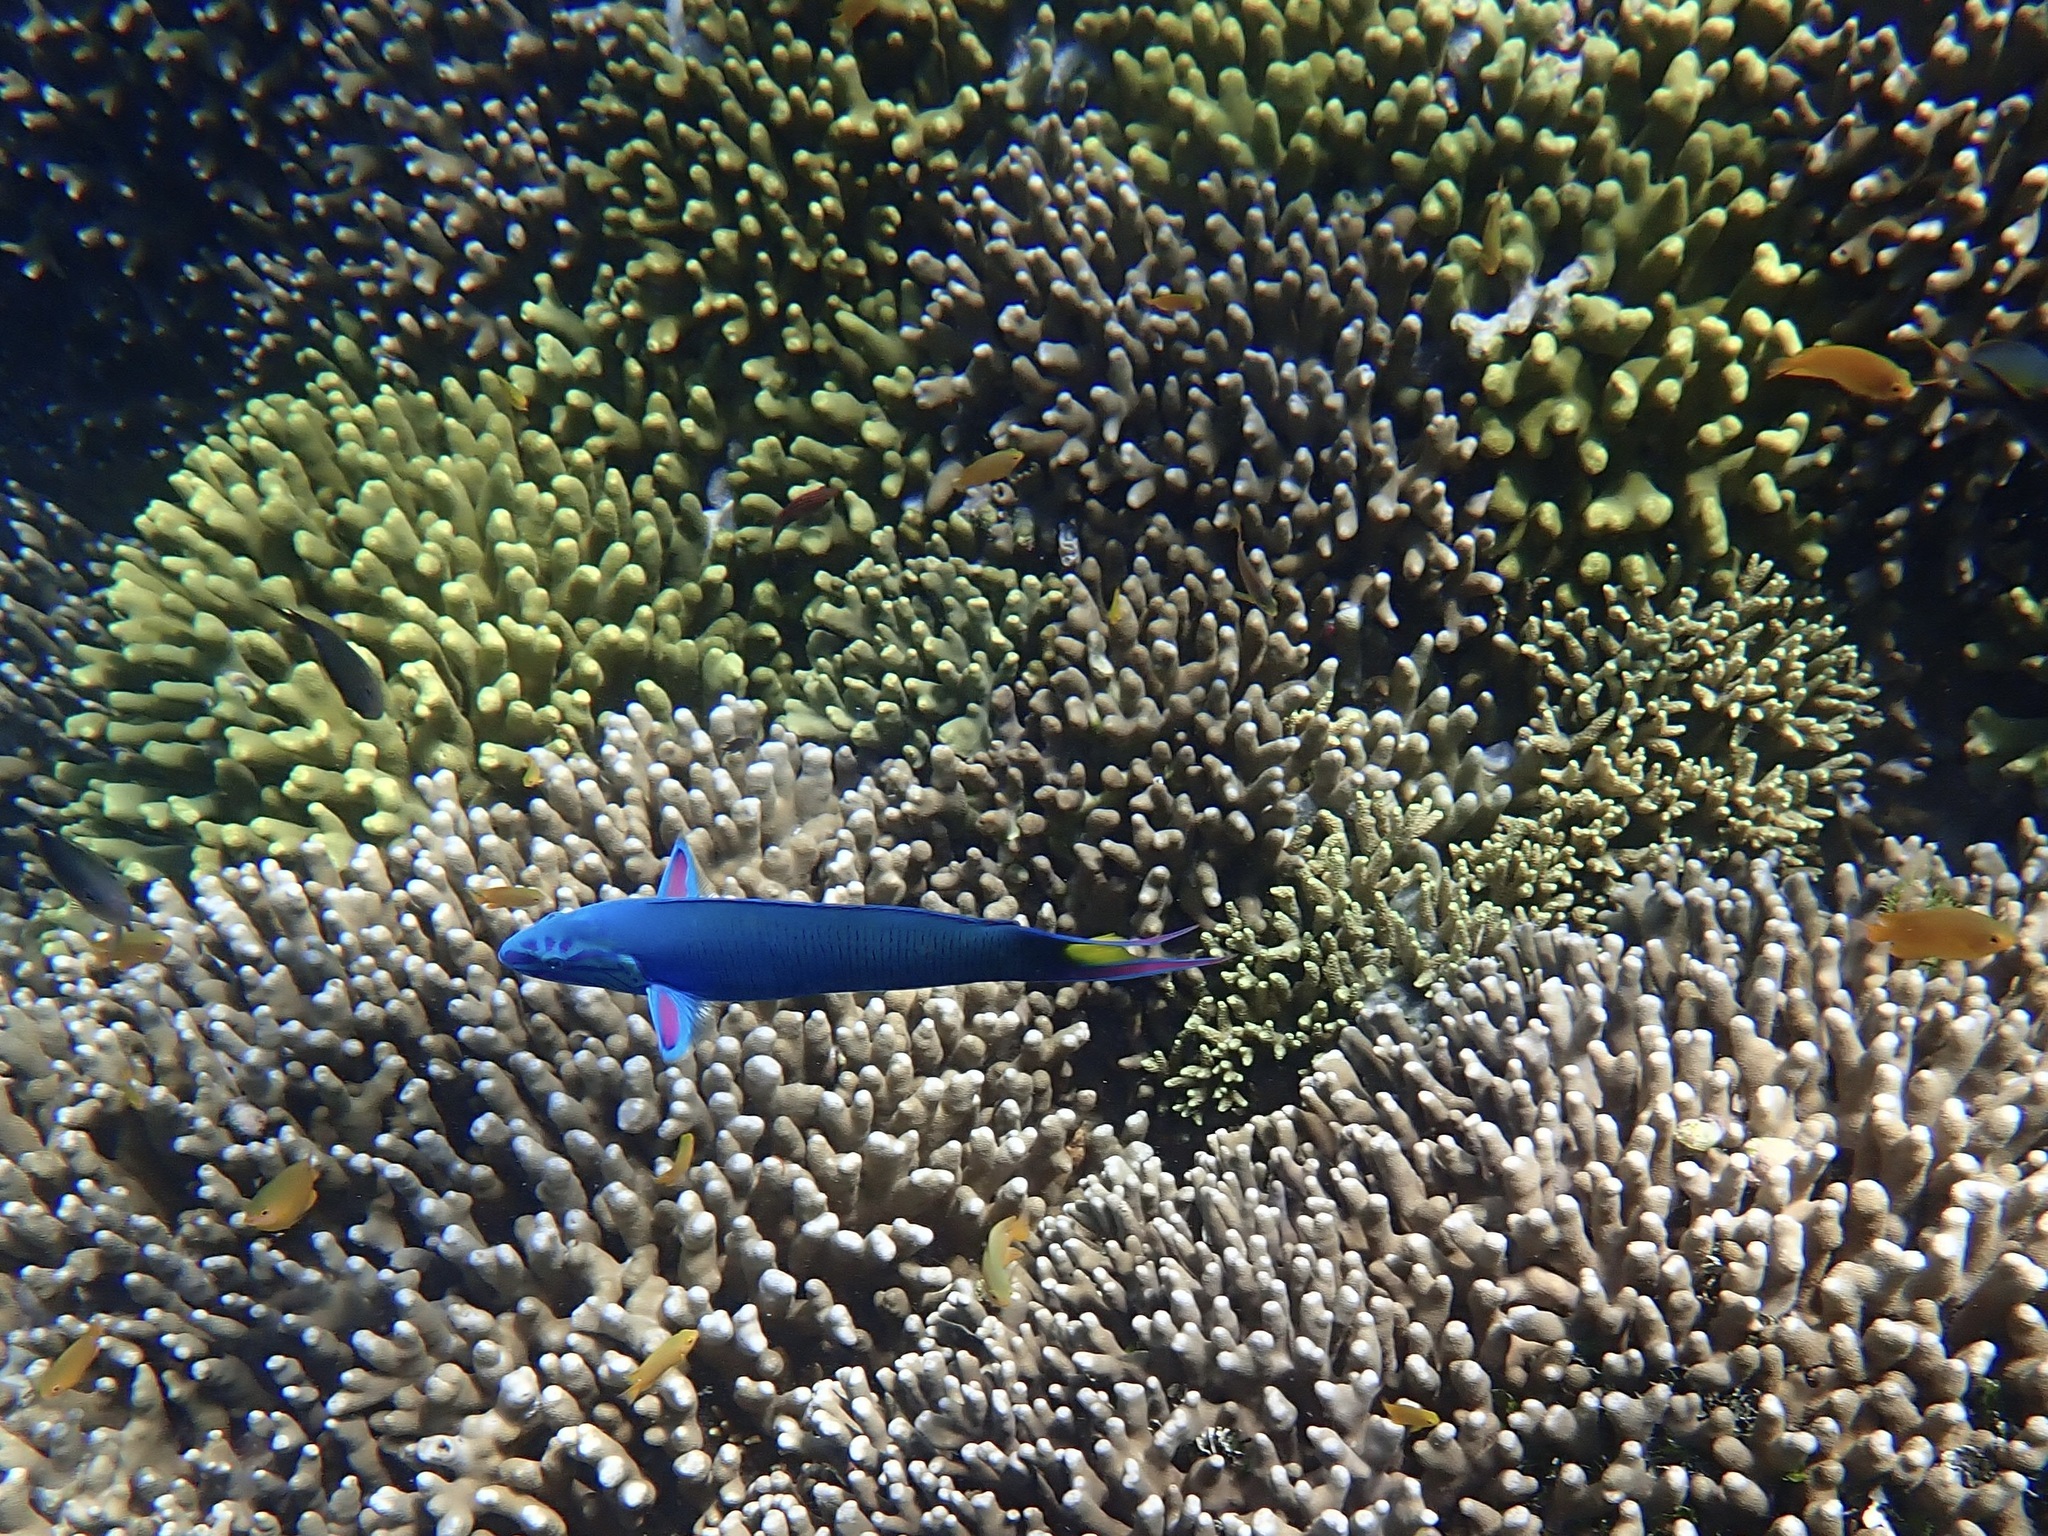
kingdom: Animalia
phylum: Chordata
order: Perciformes
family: Labridae
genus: Thalassoma
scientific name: Thalassoma lunare
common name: Blue wrasse
